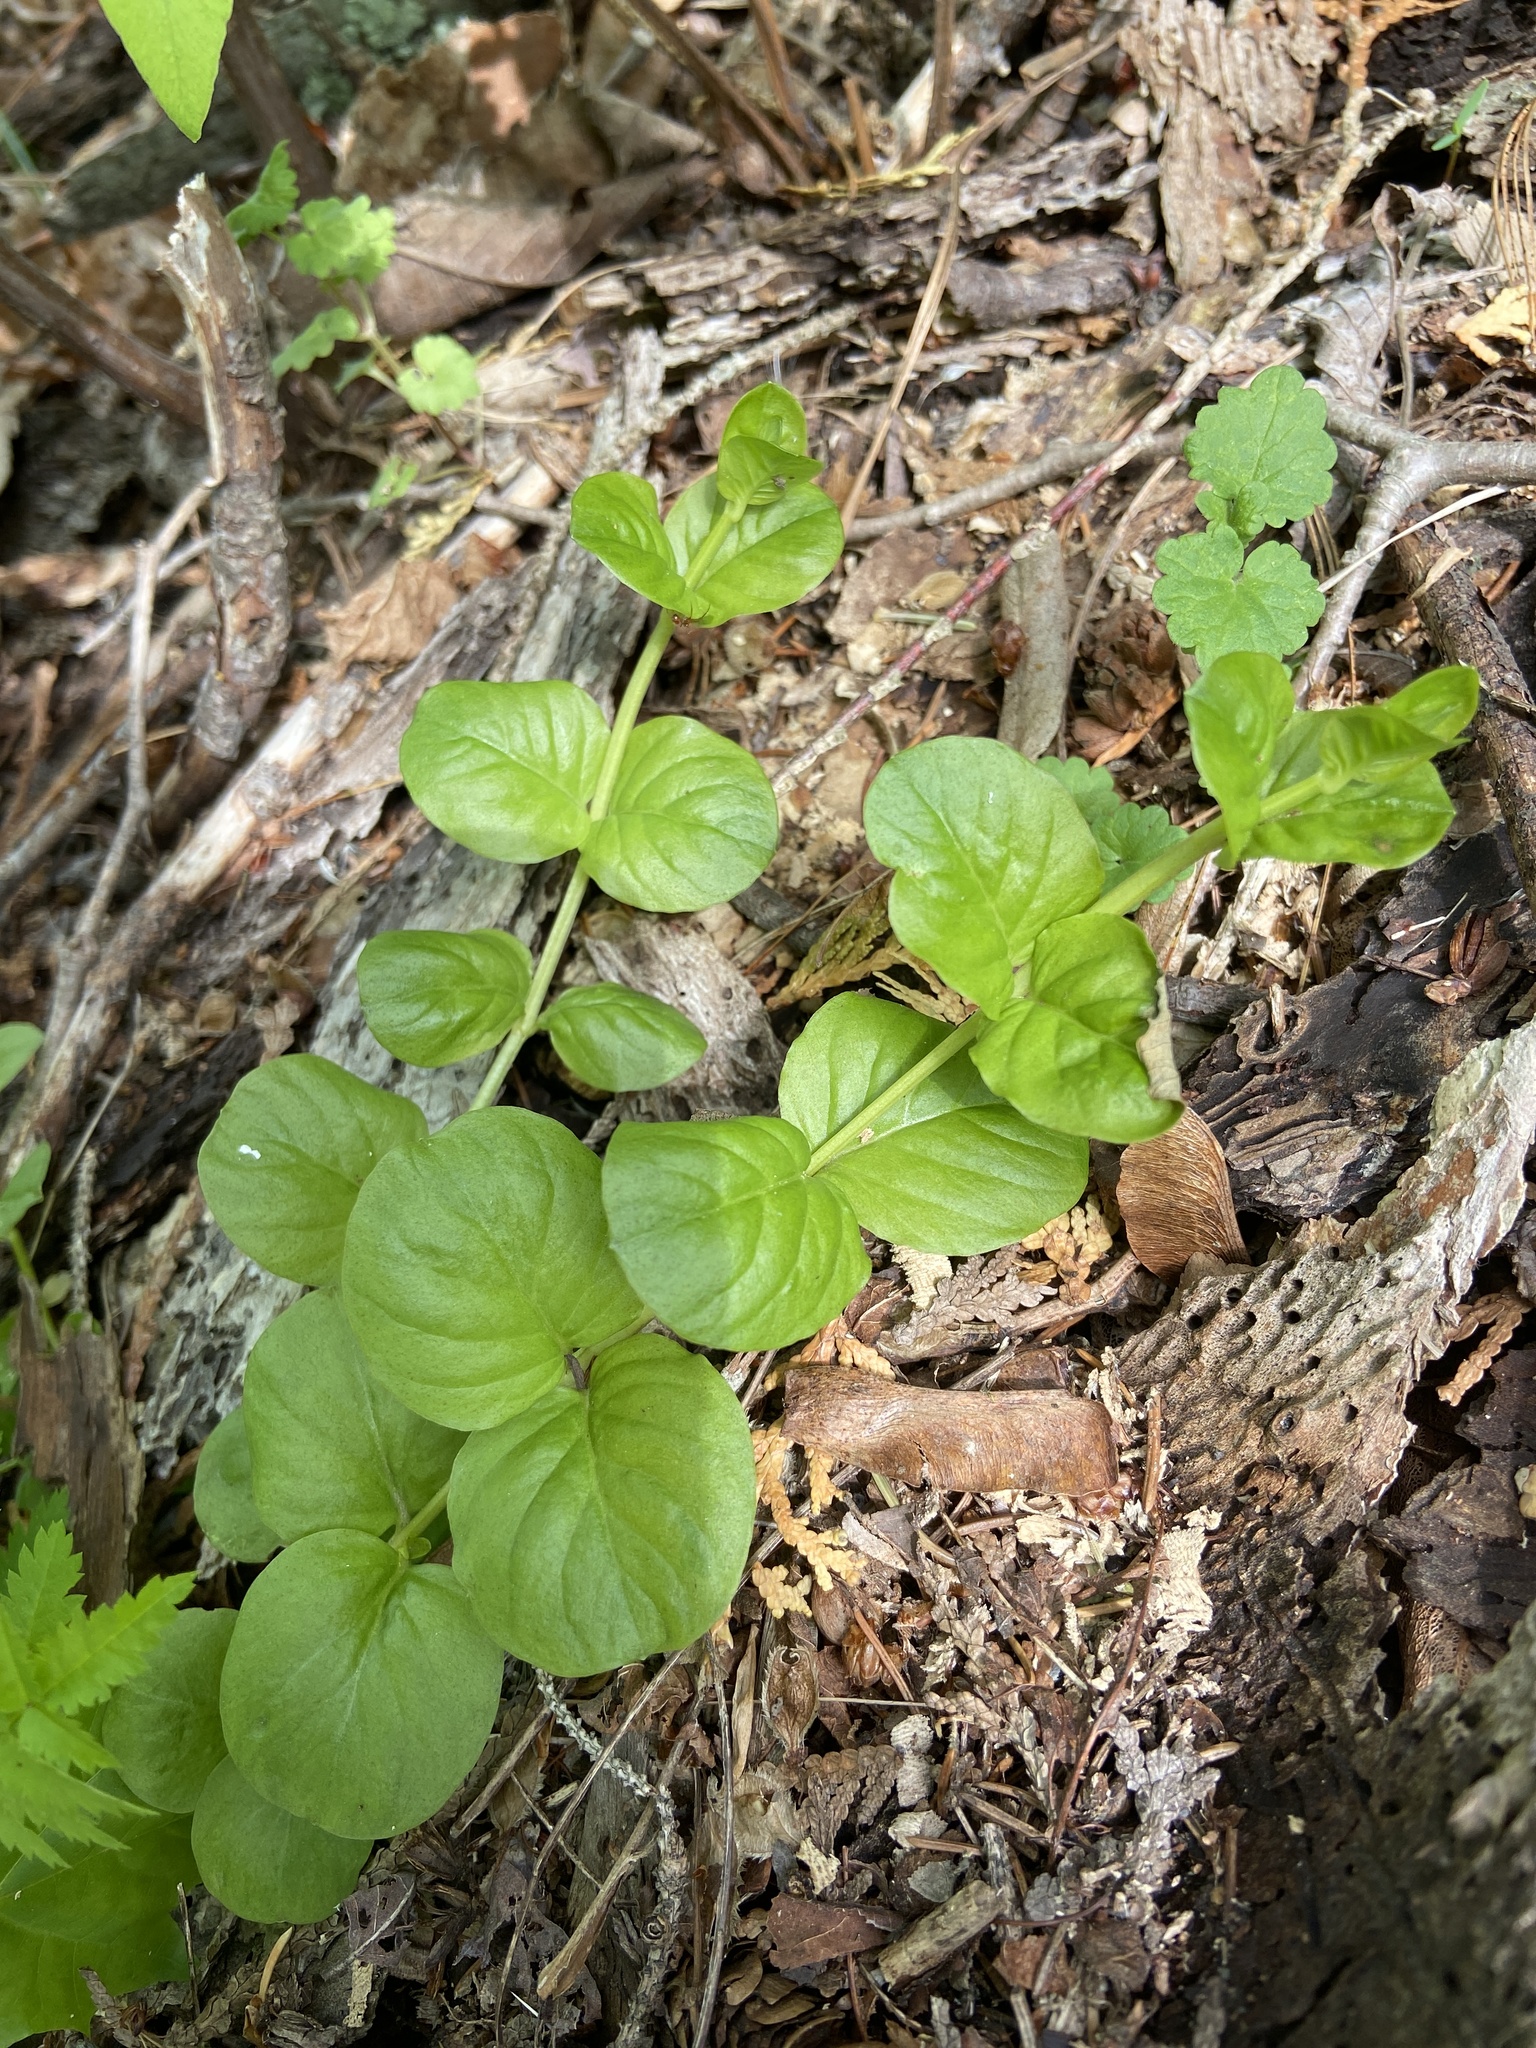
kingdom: Plantae
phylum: Tracheophyta
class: Magnoliopsida
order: Ericales
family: Primulaceae
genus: Lysimachia
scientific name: Lysimachia nummularia
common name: Moneywort
